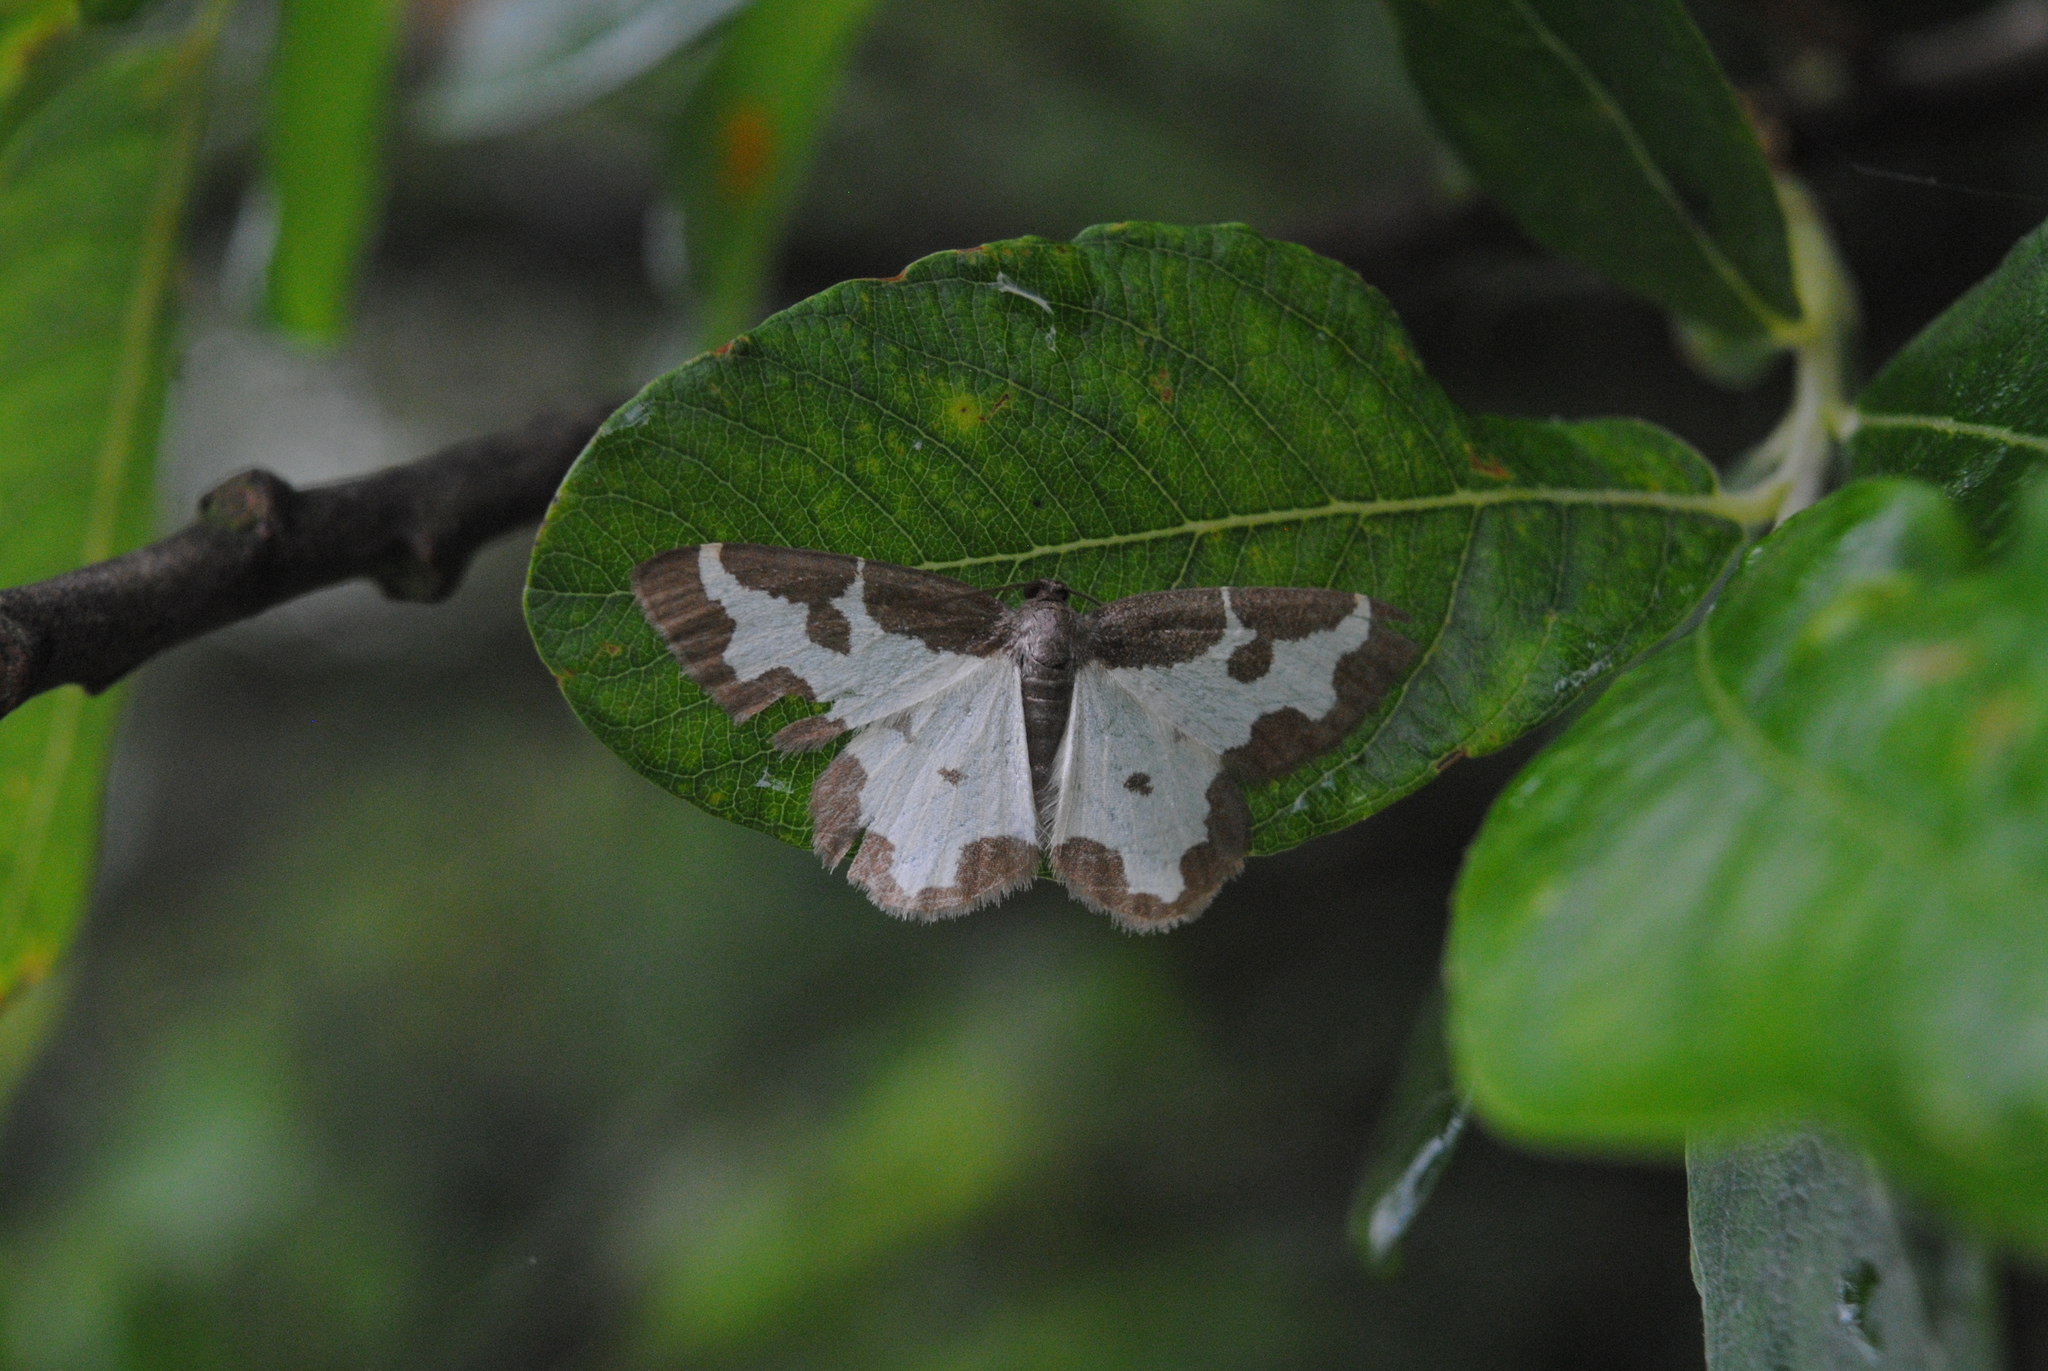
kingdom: Animalia
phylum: Arthropoda
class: Insecta
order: Lepidoptera
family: Geometridae
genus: Lomaspilis
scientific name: Lomaspilis marginata
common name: Clouded border
